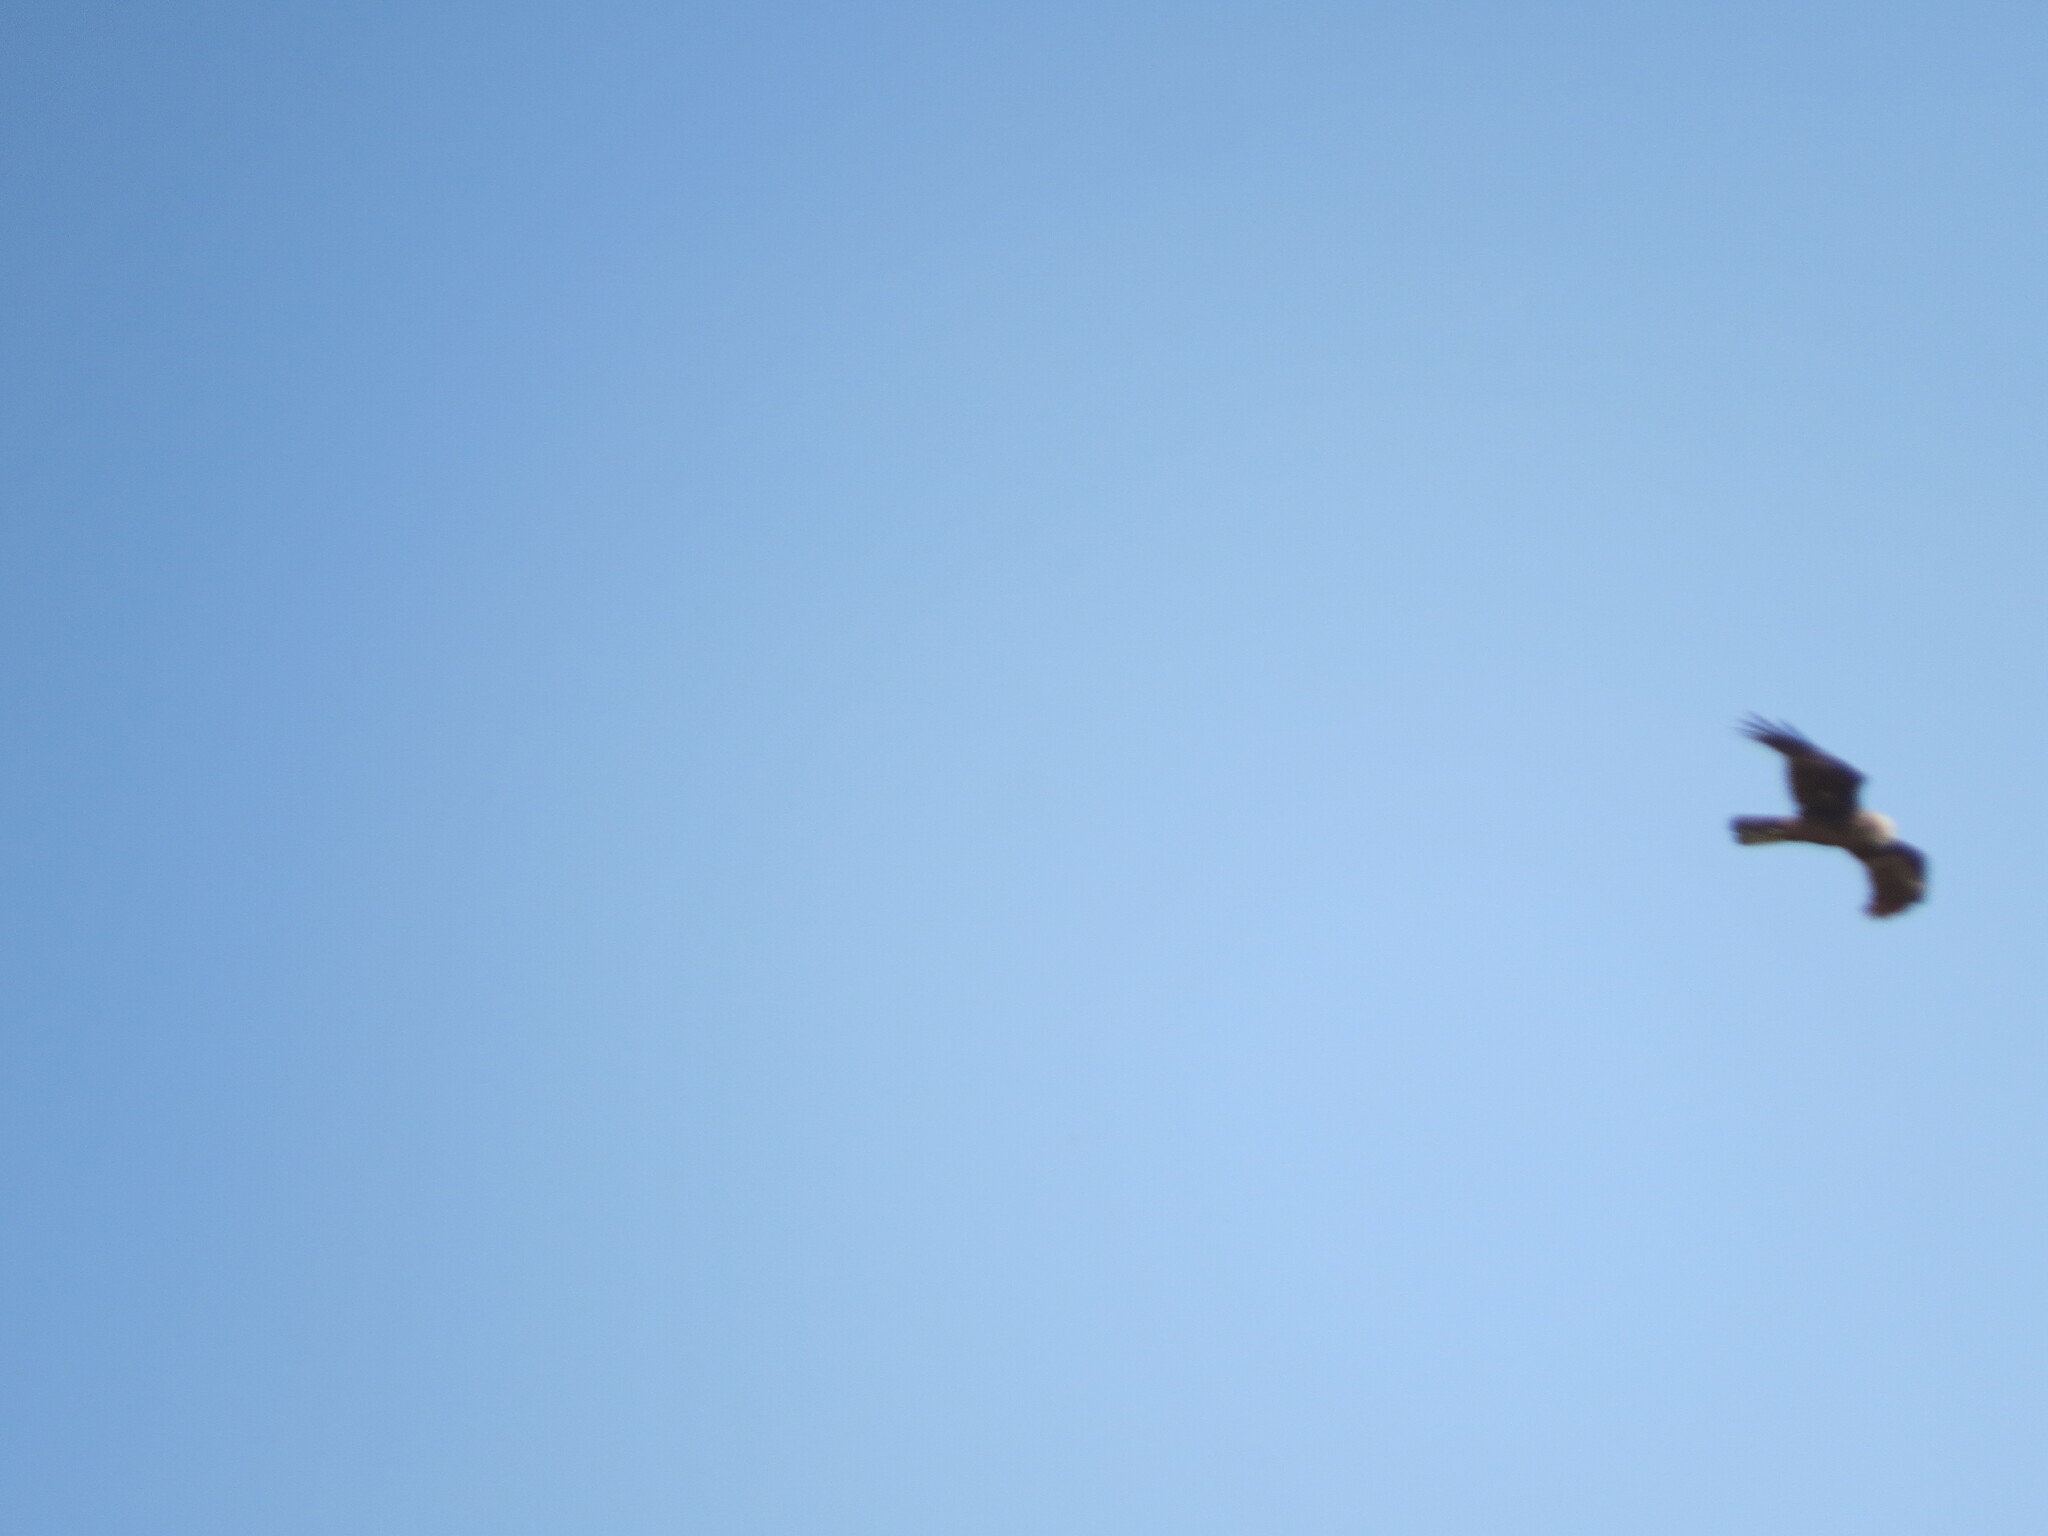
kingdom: Animalia
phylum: Chordata
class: Aves
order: Accipitriformes
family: Accipitridae
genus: Circus
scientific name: Circus aeruginosus
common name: Western marsh harrier
